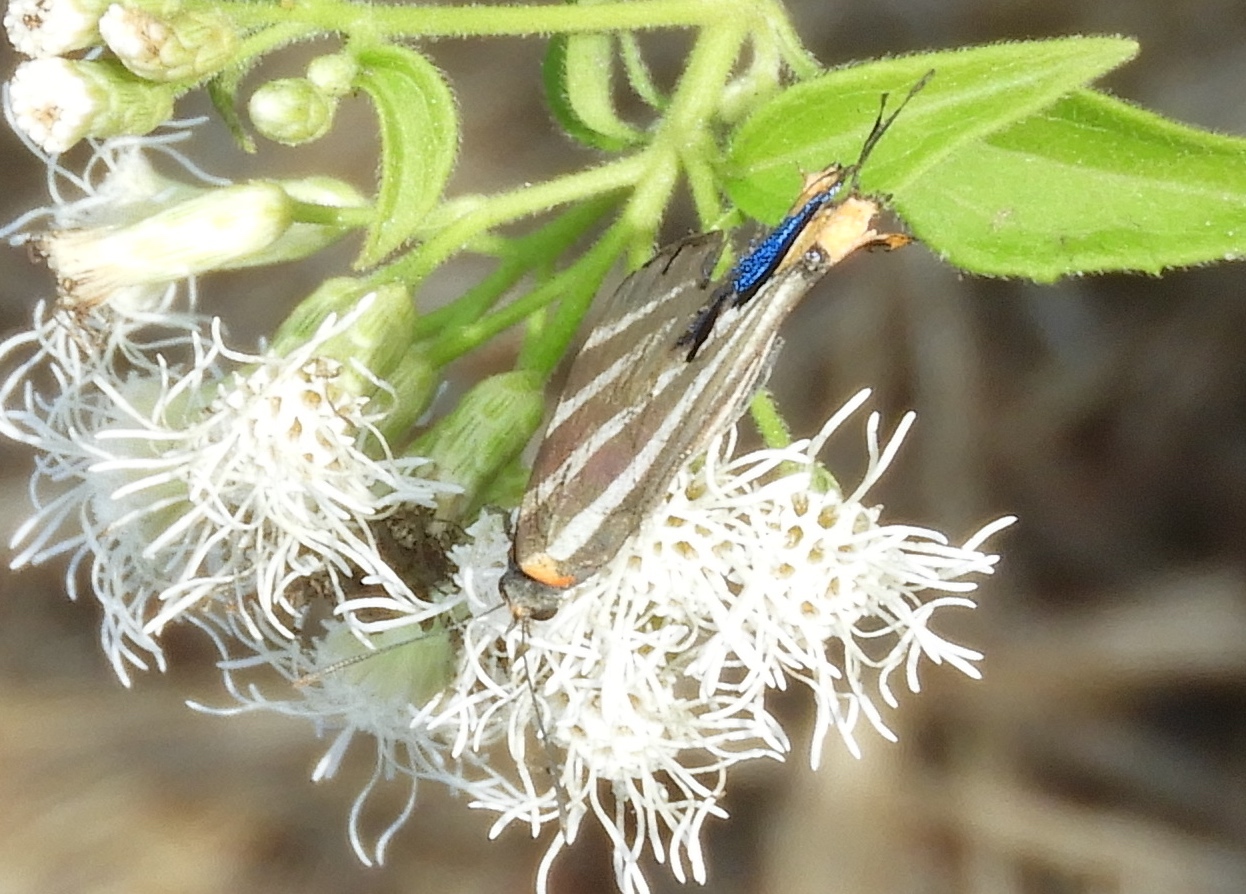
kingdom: Animalia
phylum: Arthropoda
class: Insecta
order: Lepidoptera
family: Lycaenidae
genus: Thecla
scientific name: Thecla bathildis
